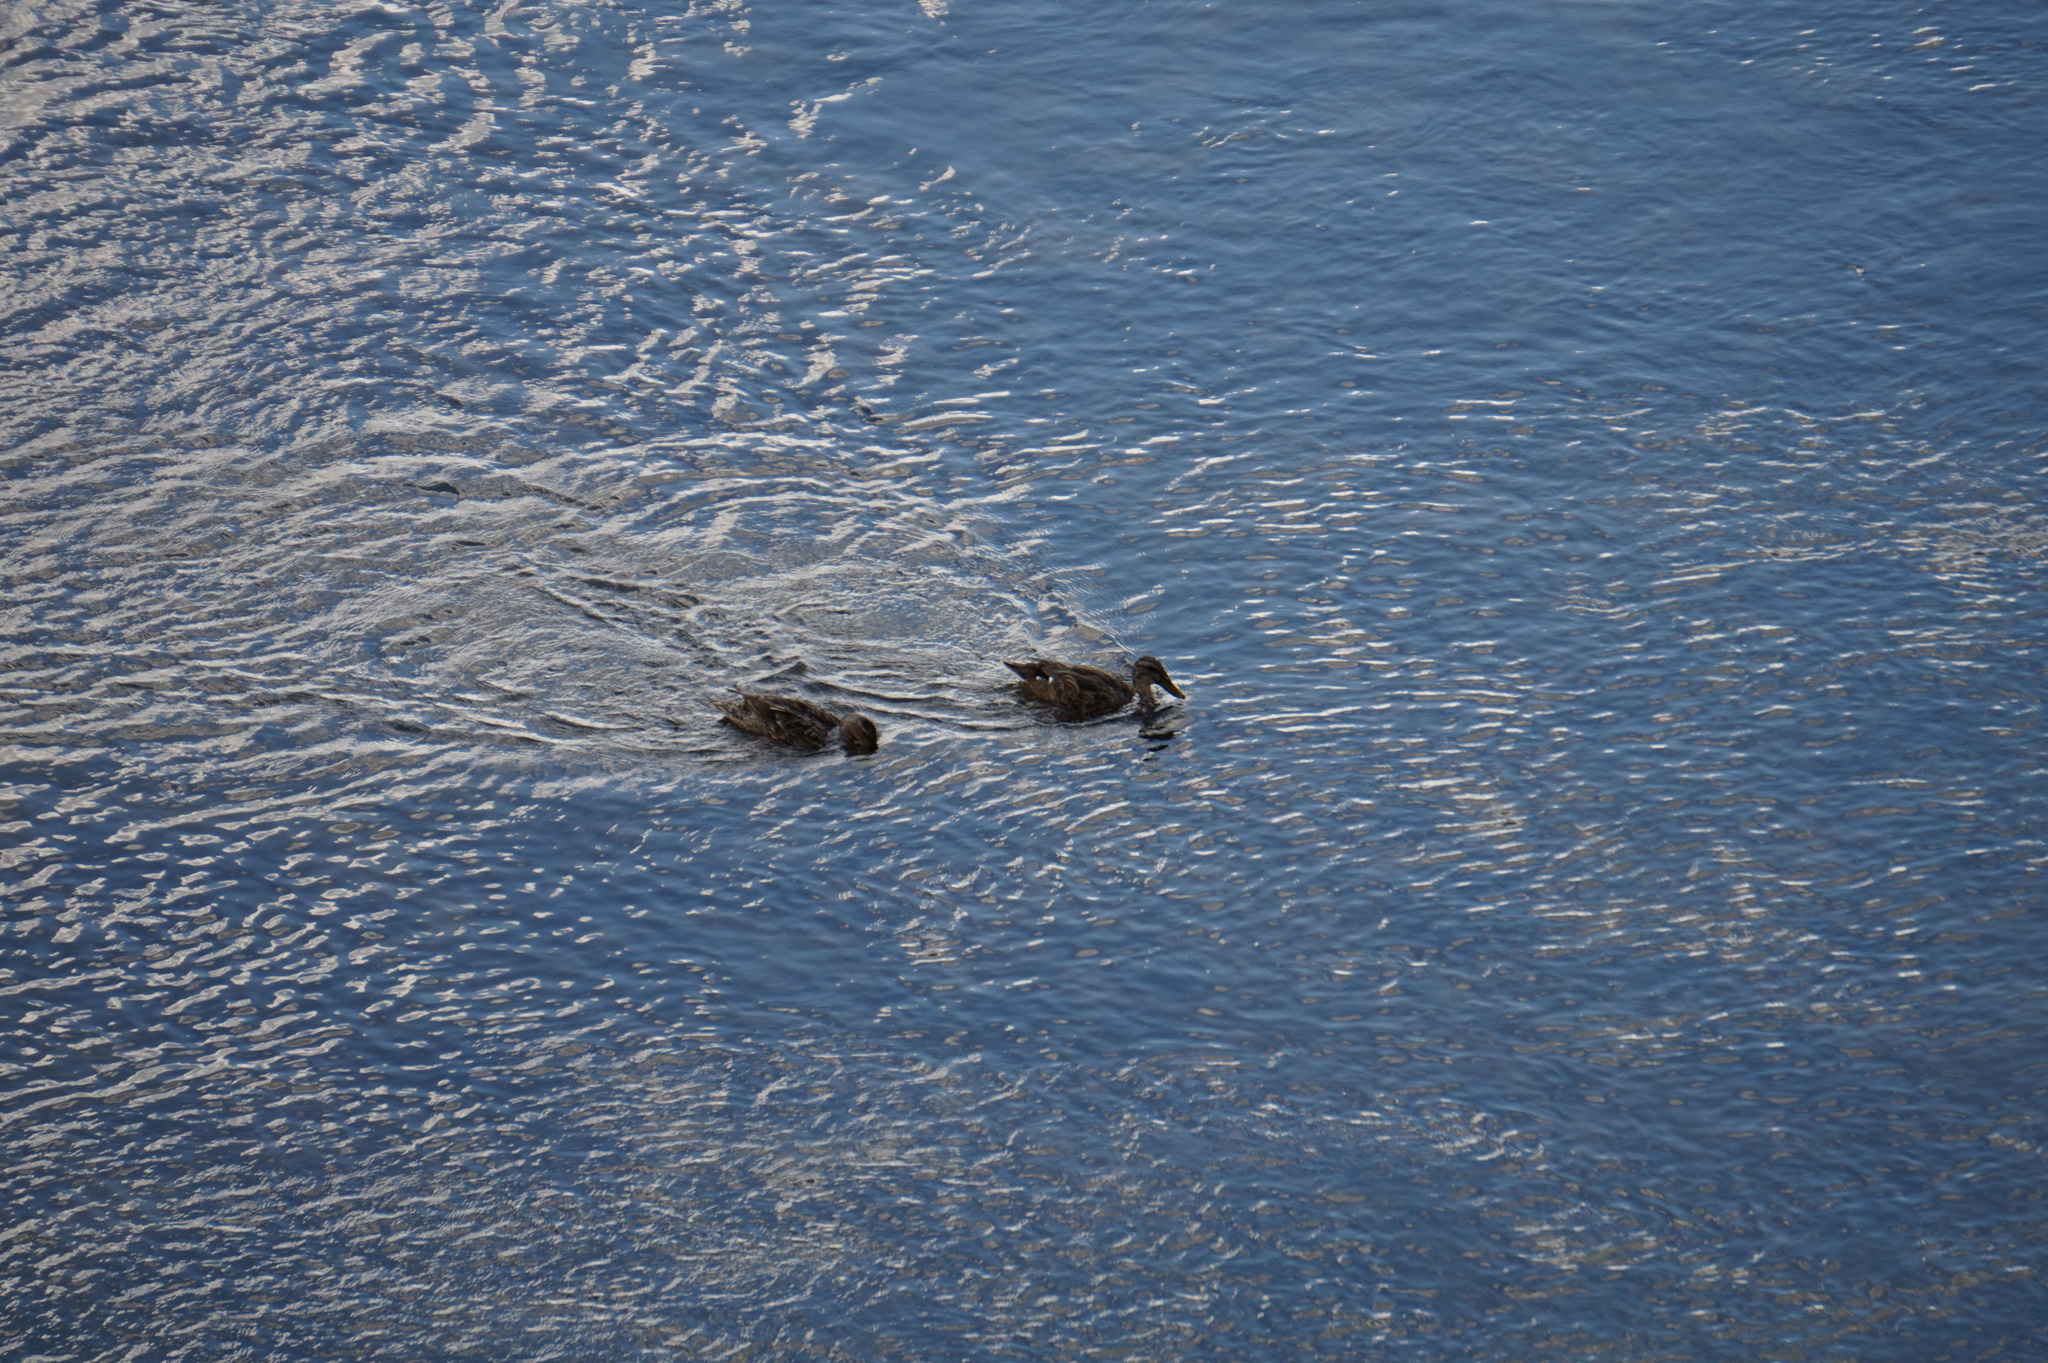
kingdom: Animalia
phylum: Chordata
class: Aves
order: Anseriformes
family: Anatidae
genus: Anas
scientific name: Anas platyrhynchos
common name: Mallard
